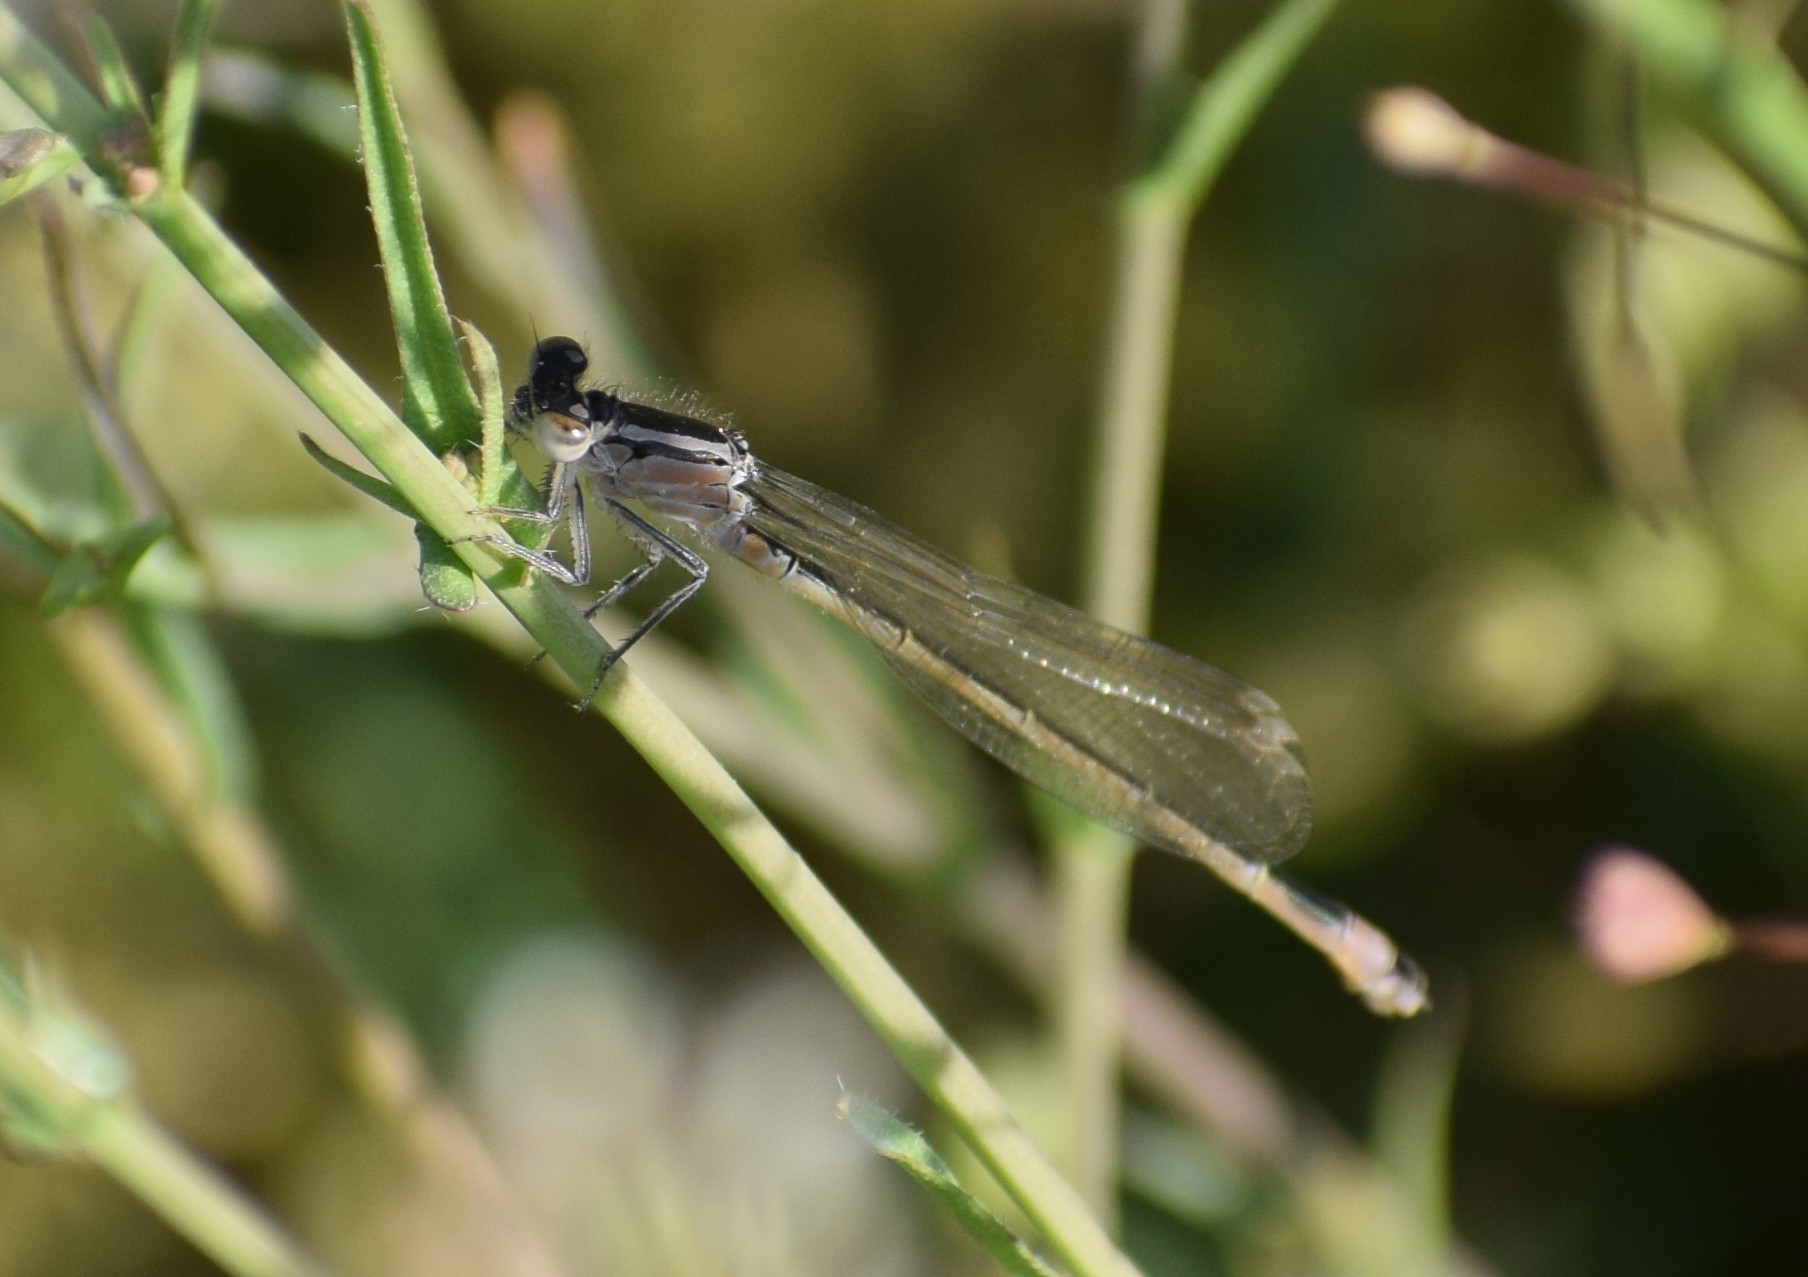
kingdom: Animalia
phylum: Arthropoda
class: Insecta
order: Odonata
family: Coenagrionidae
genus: Ischnura
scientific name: Ischnura elegans
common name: Blue-tailed damselfly
